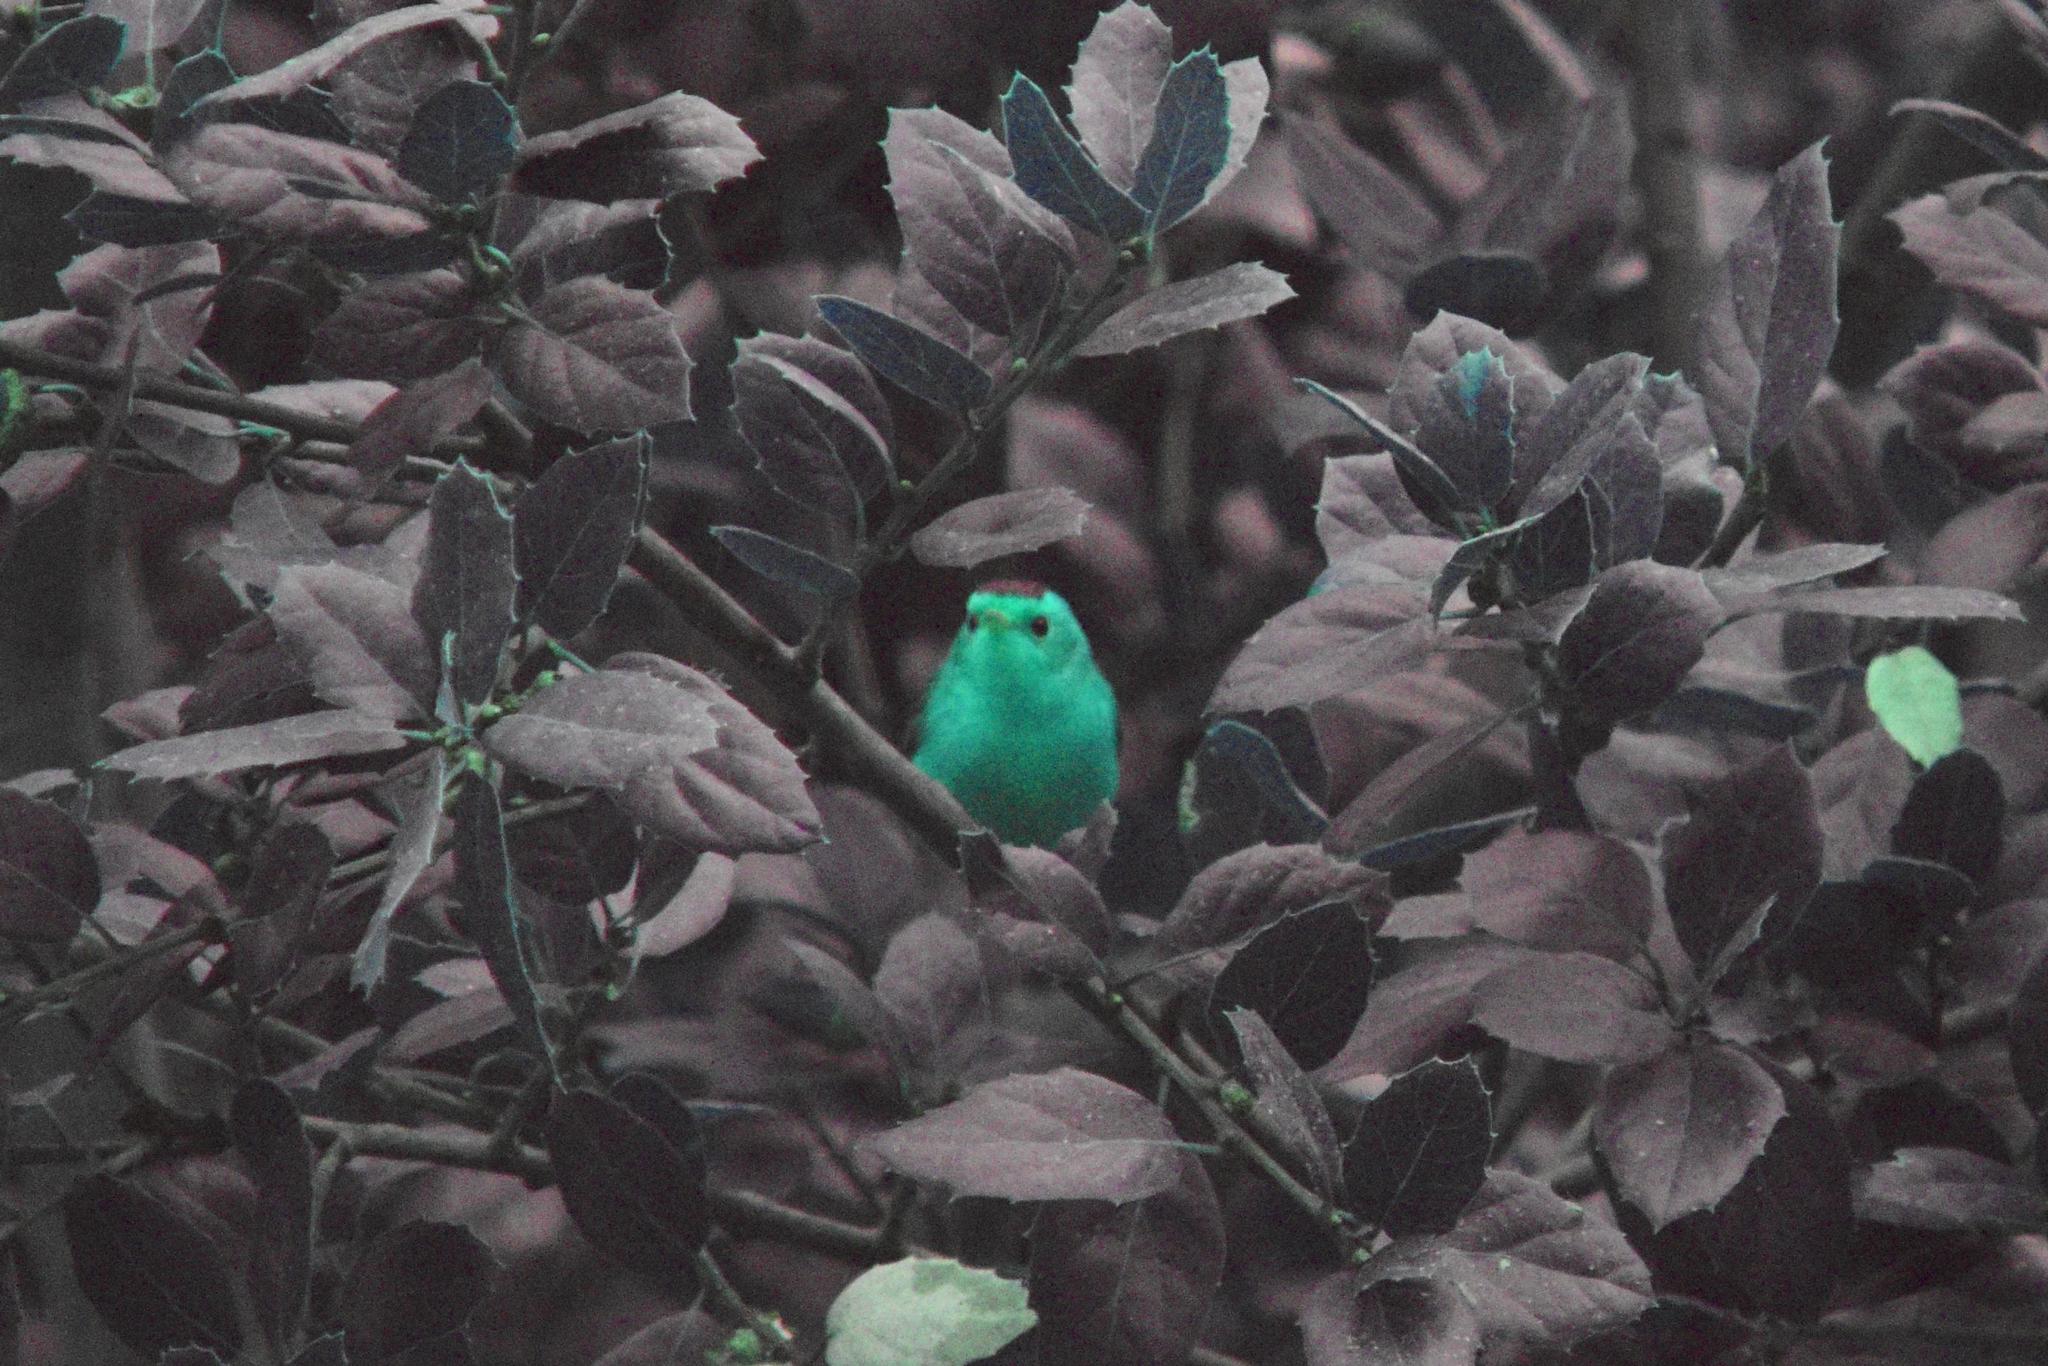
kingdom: Animalia
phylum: Chordata
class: Aves
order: Passeriformes
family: Parulidae
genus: Cardellina
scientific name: Cardellina pusilla
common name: Wilson's warbler
